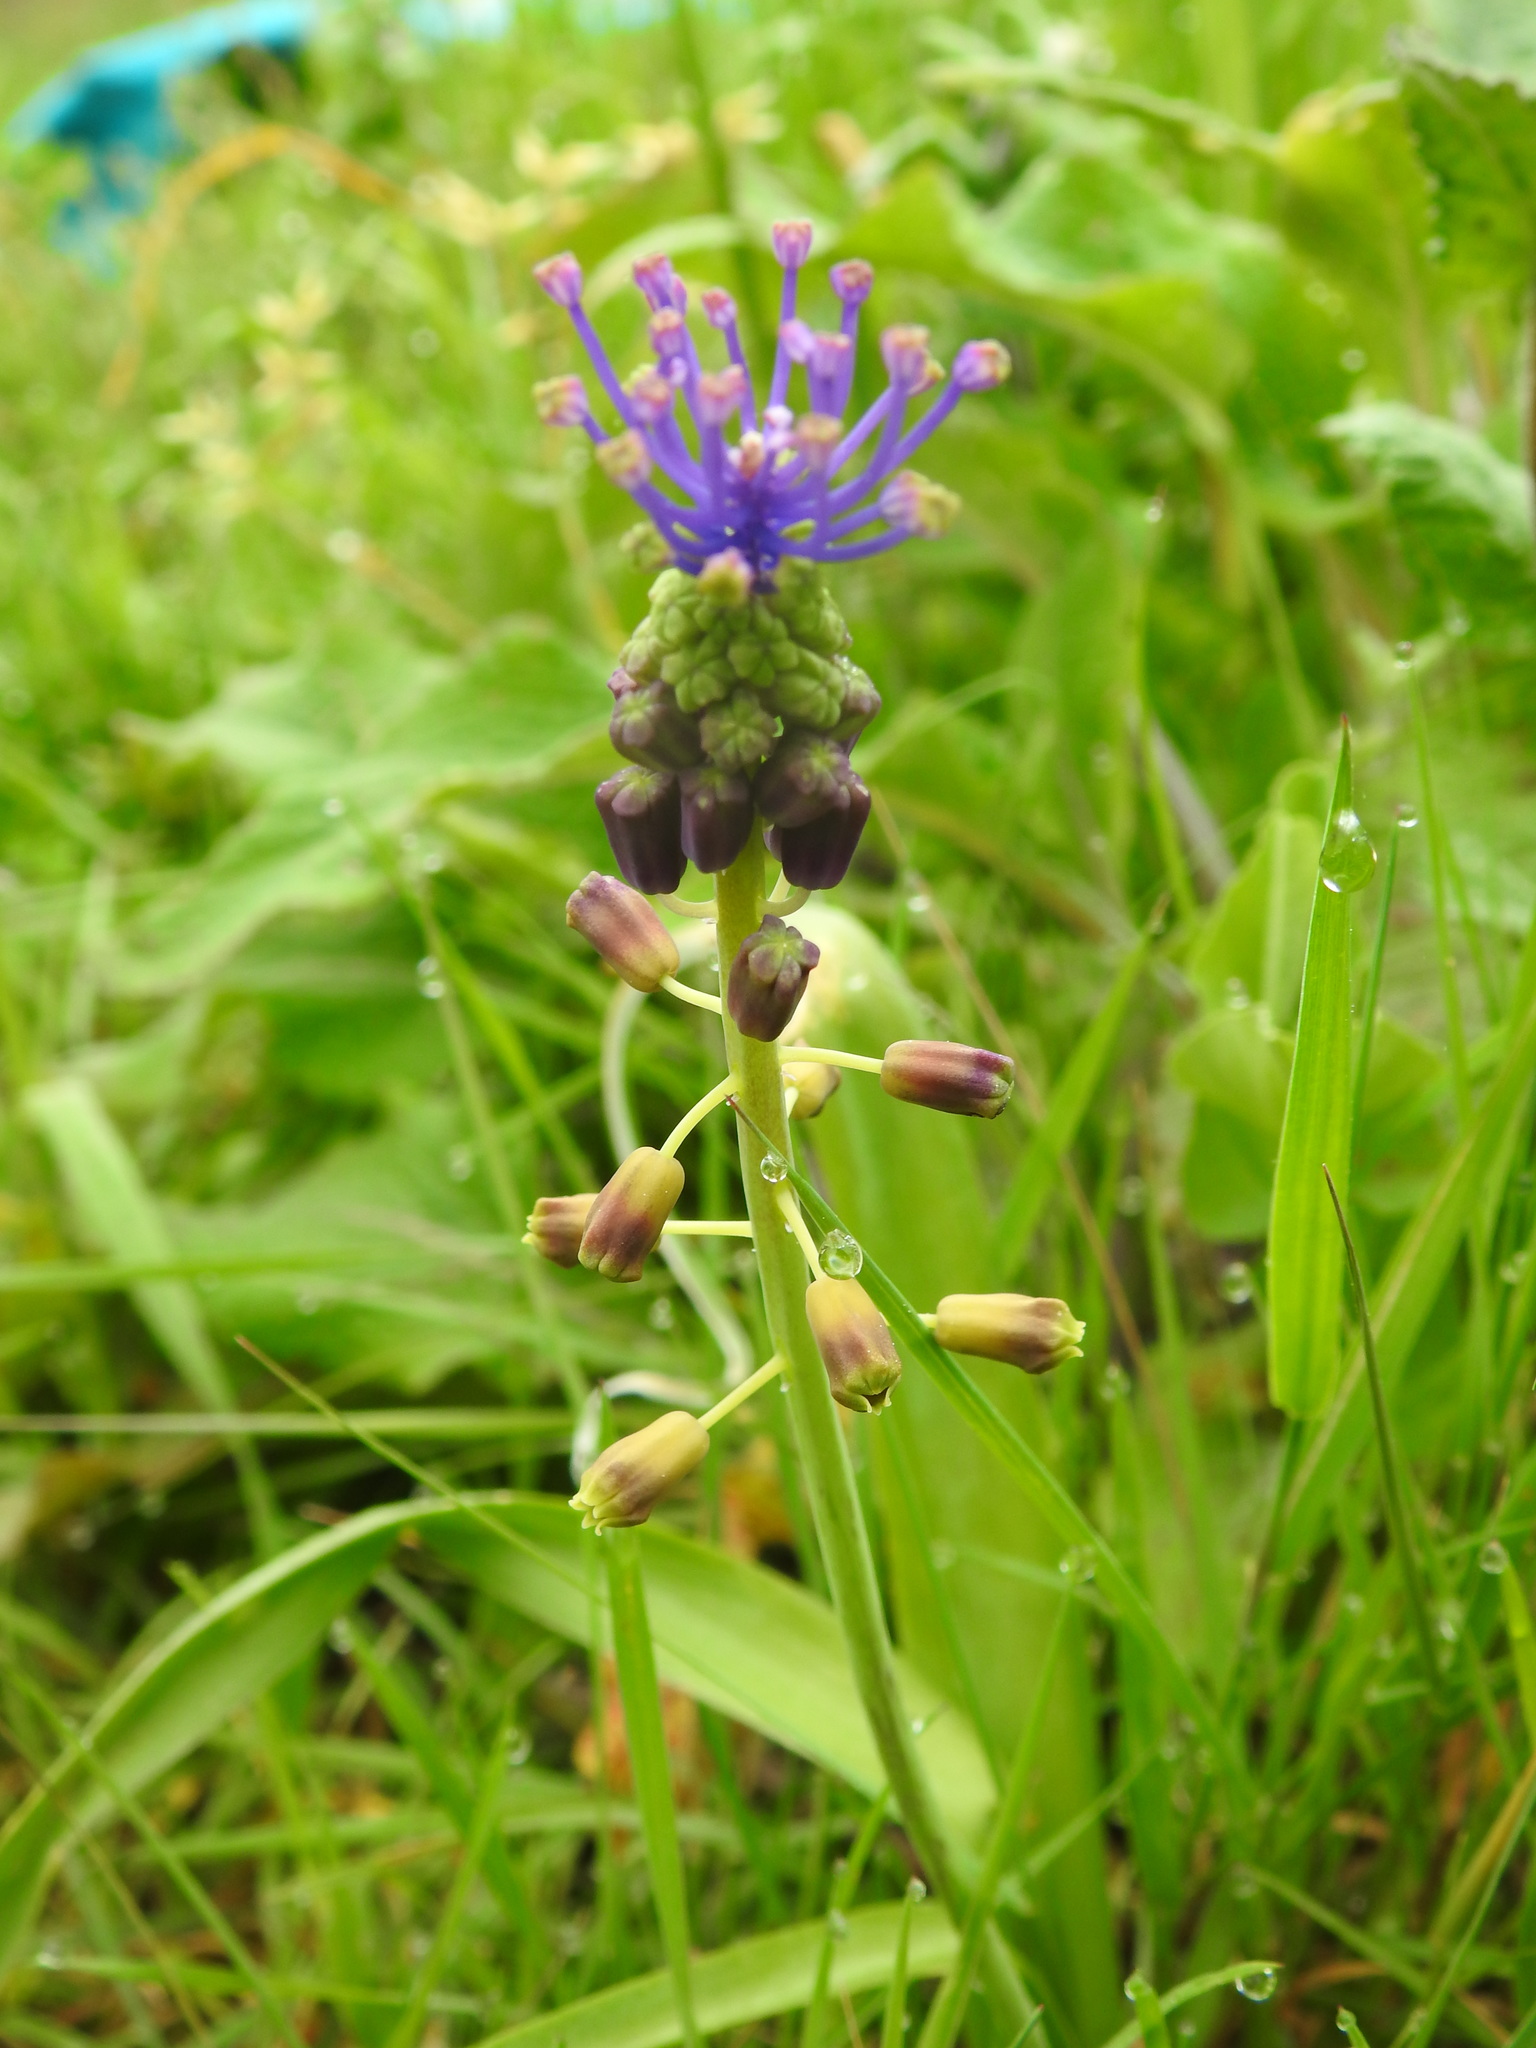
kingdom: Plantae
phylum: Tracheophyta
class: Liliopsida
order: Asparagales
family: Asparagaceae
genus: Muscari
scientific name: Muscari comosum
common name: Tassel hyacinth
